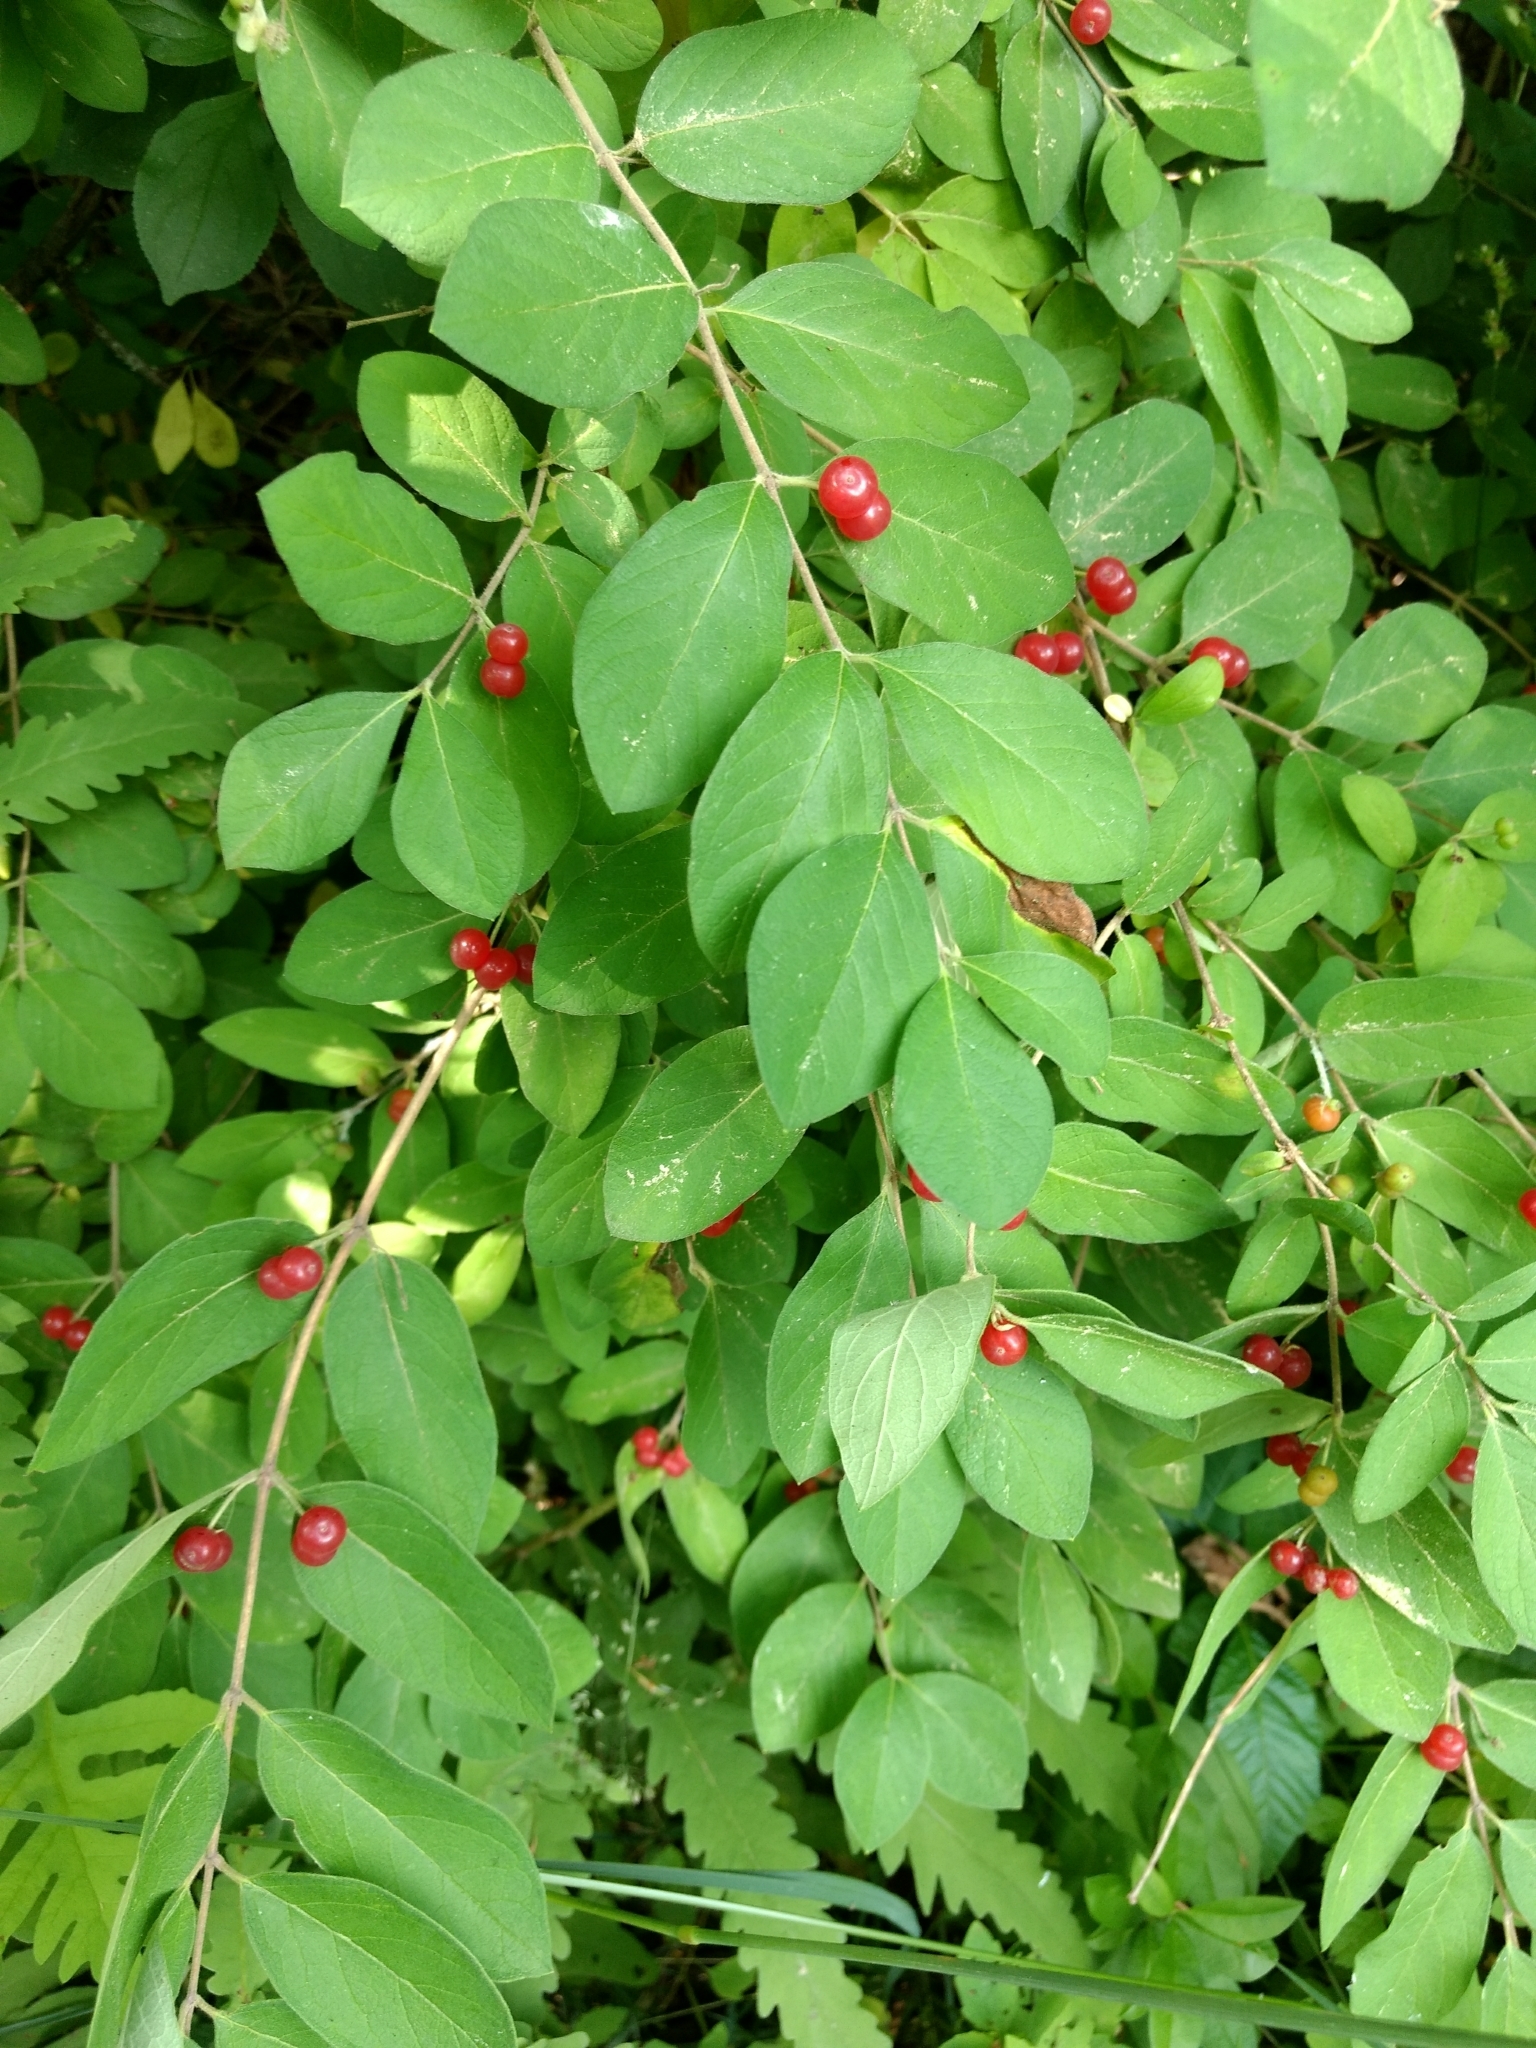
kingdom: Plantae
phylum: Tracheophyta
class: Magnoliopsida
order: Dipsacales
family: Caprifoliaceae
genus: Lonicera
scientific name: Lonicera
